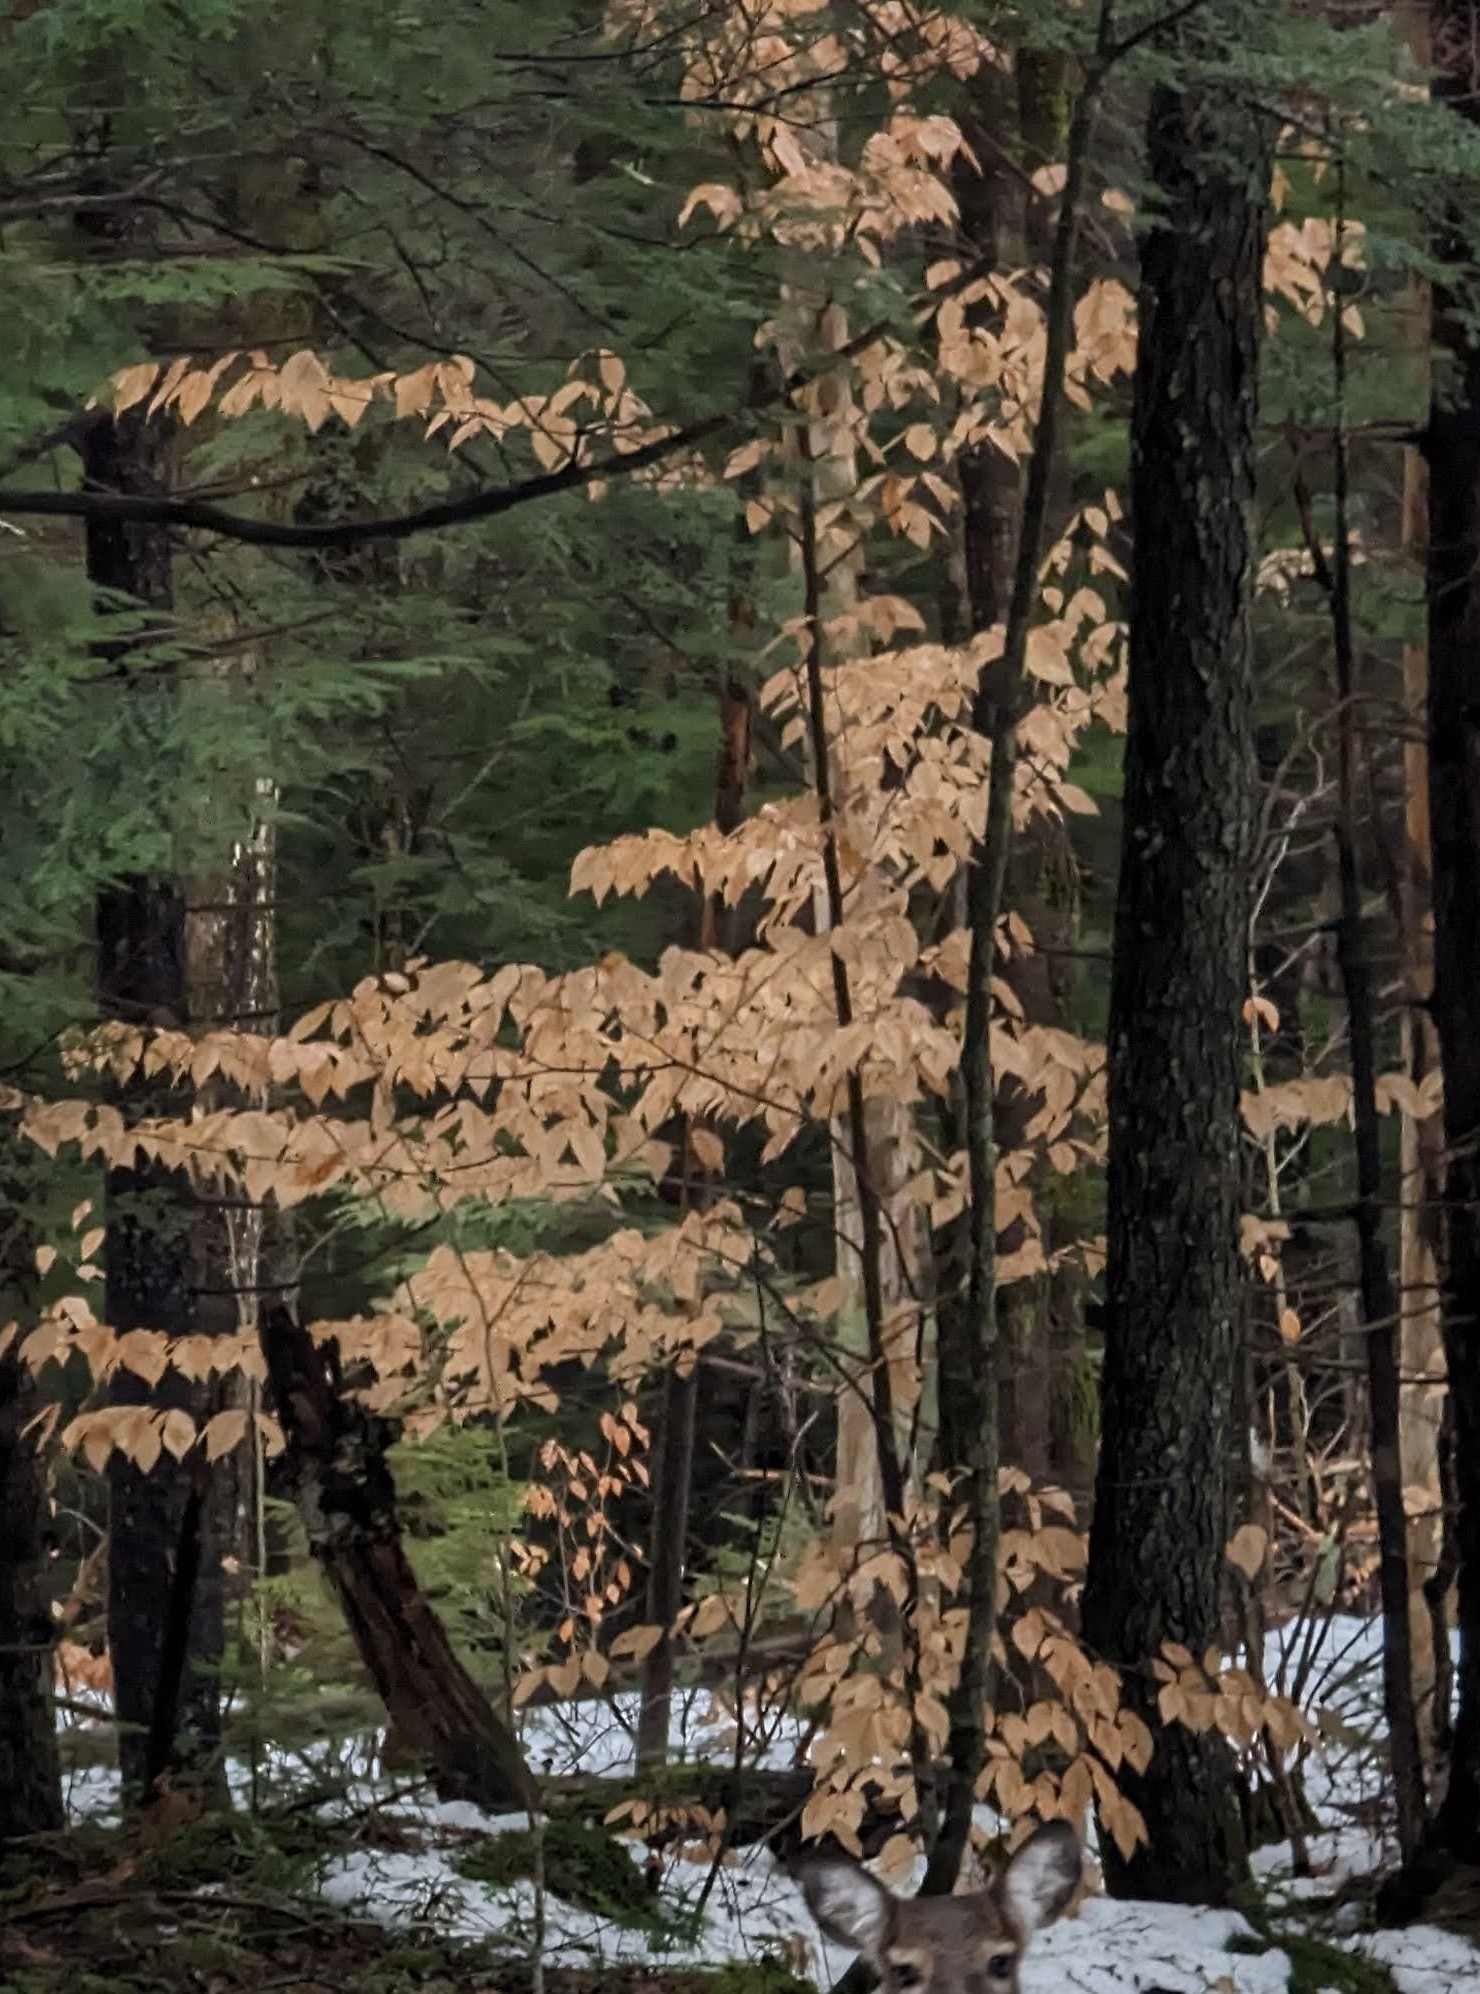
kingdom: Plantae
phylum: Tracheophyta
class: Magnoliopsida
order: Fagales
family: Fagaceae
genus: Fagus
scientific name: Fagus grandifolia
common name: American beech
